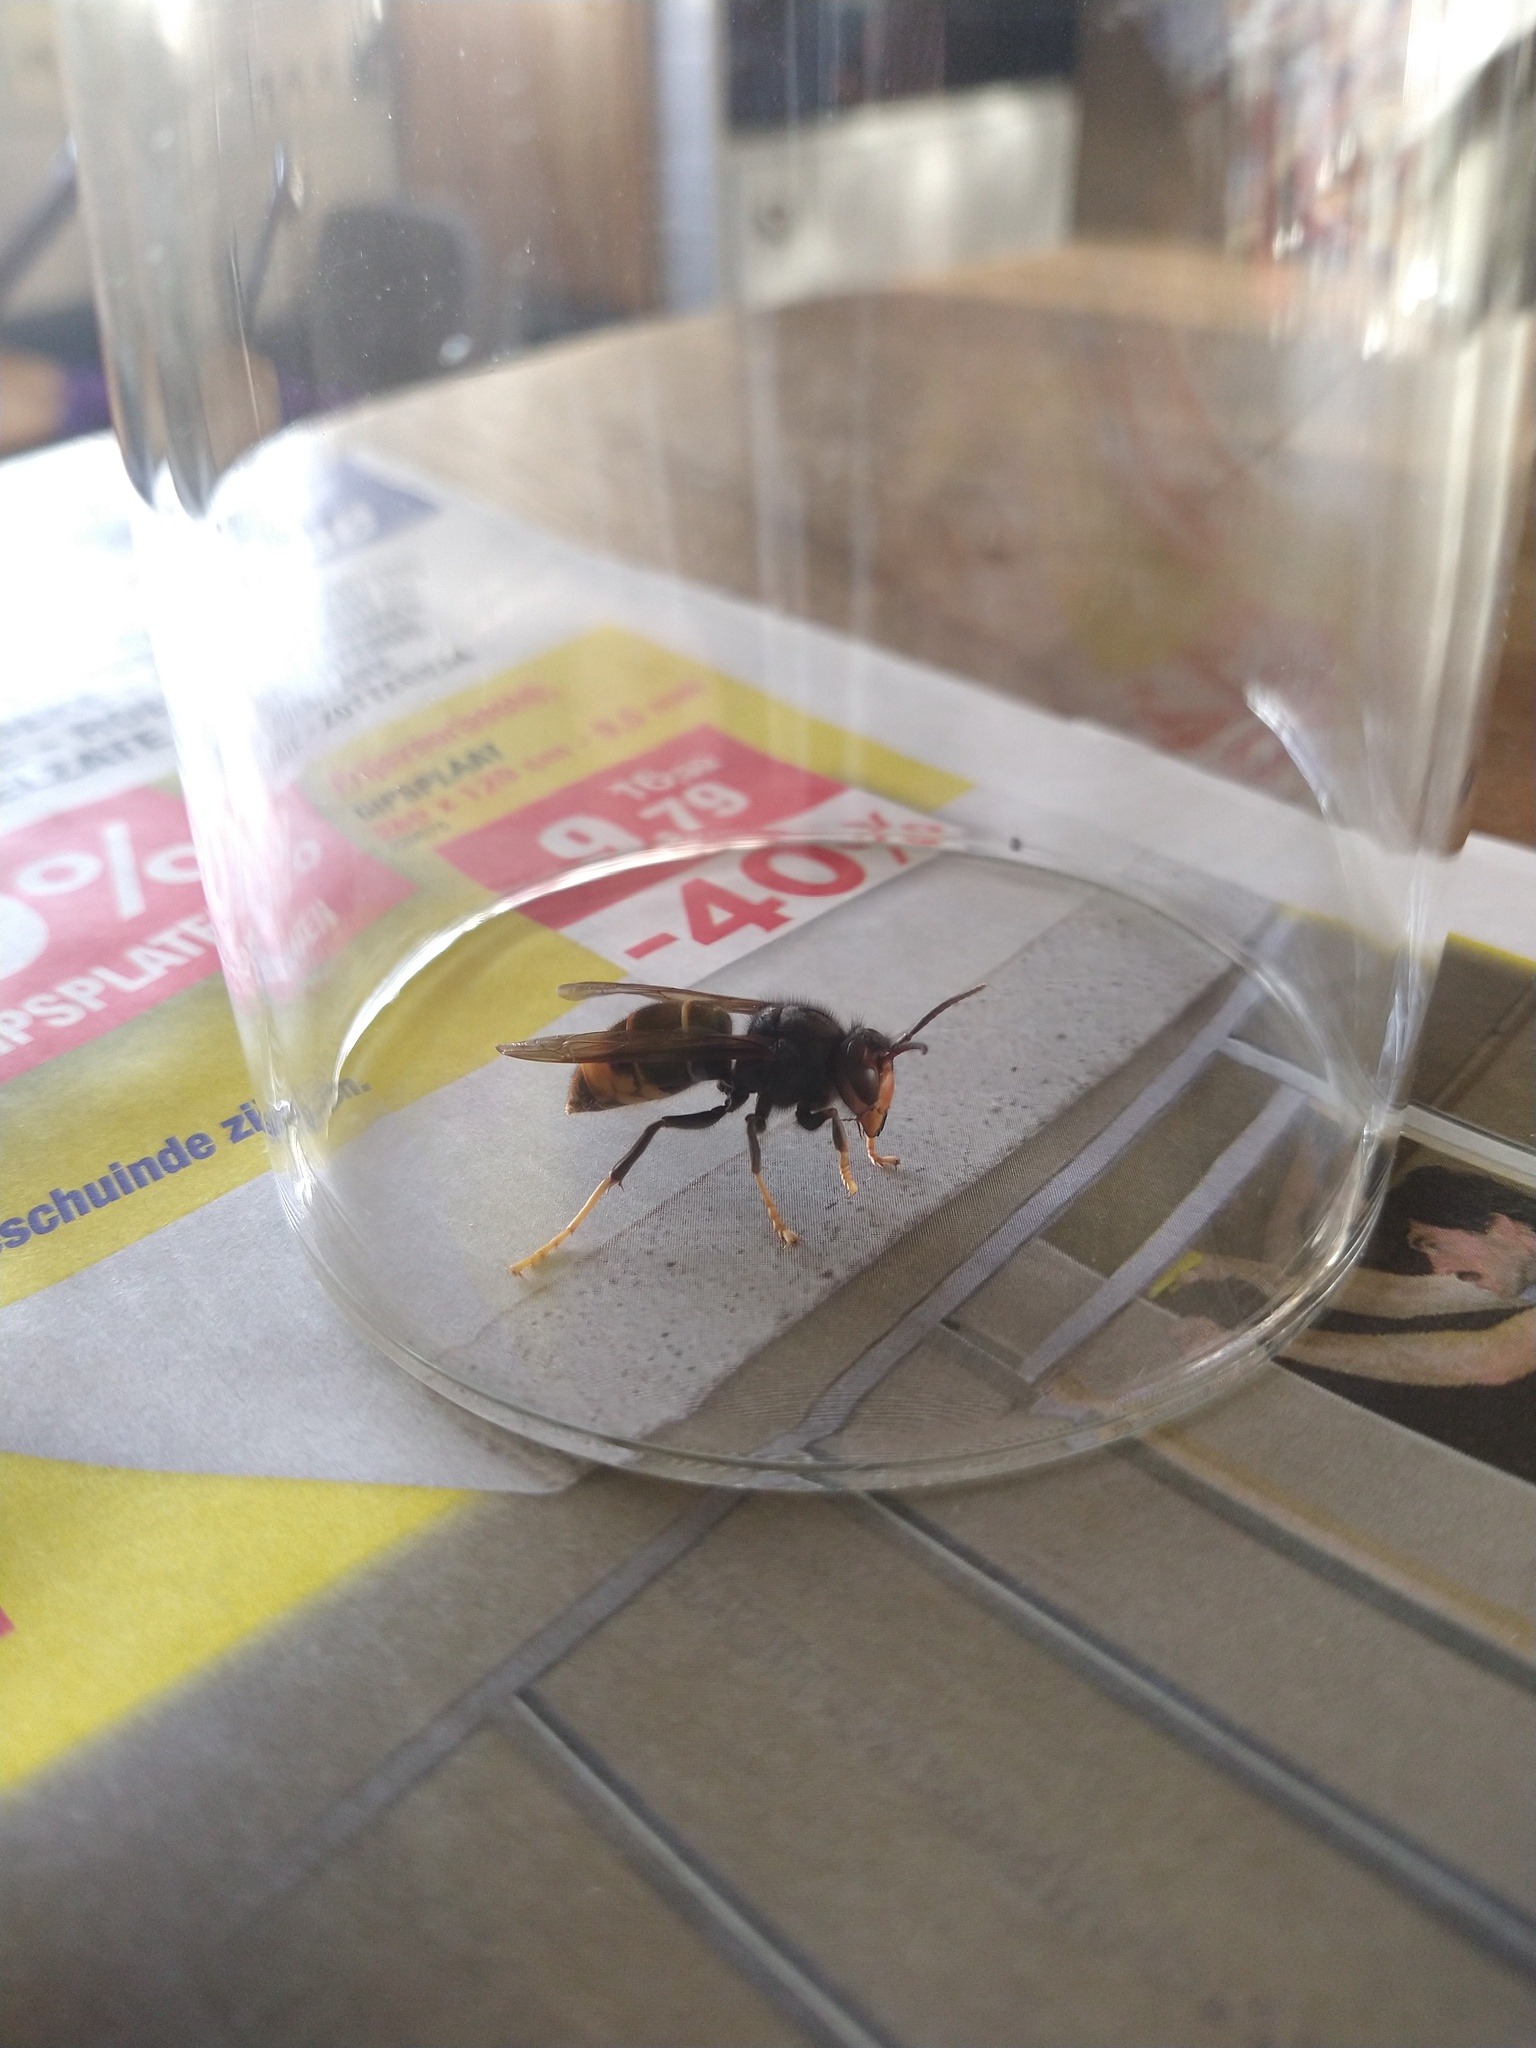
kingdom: Animalia
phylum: Arthropoda
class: Insecta
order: Hymenoptera
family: Vespidae
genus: Vespa
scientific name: Vespa velutina
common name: Asian hornet
